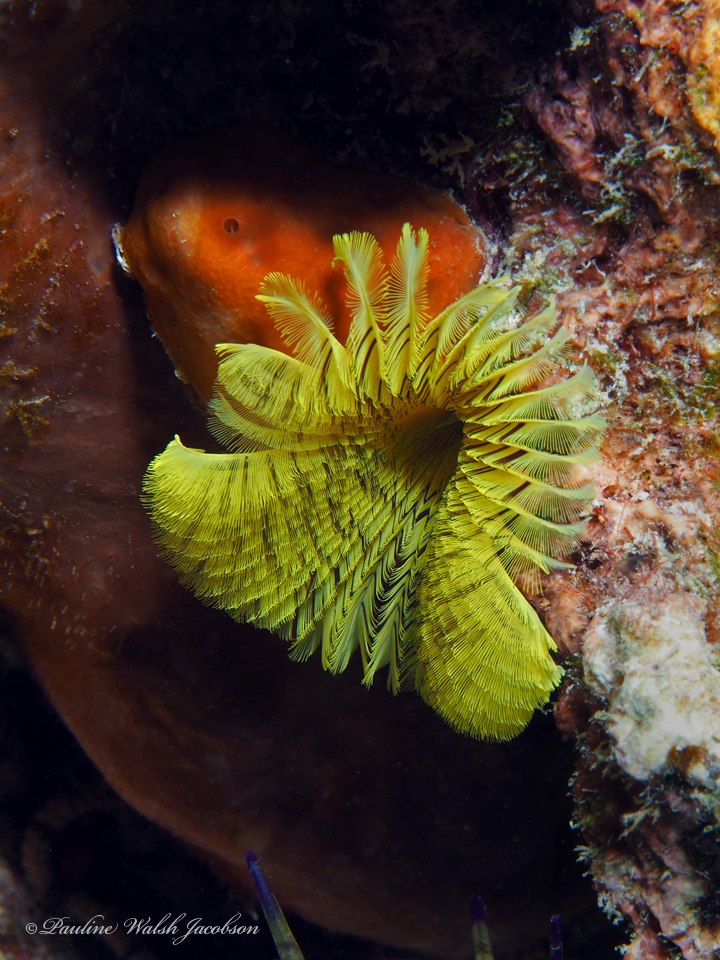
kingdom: Animalia
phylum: Annelida
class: Polychaeta
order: Sabellida
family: Sabellidae
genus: Notaulax
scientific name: Notaulax occidentalis
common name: Yellow fanworm
